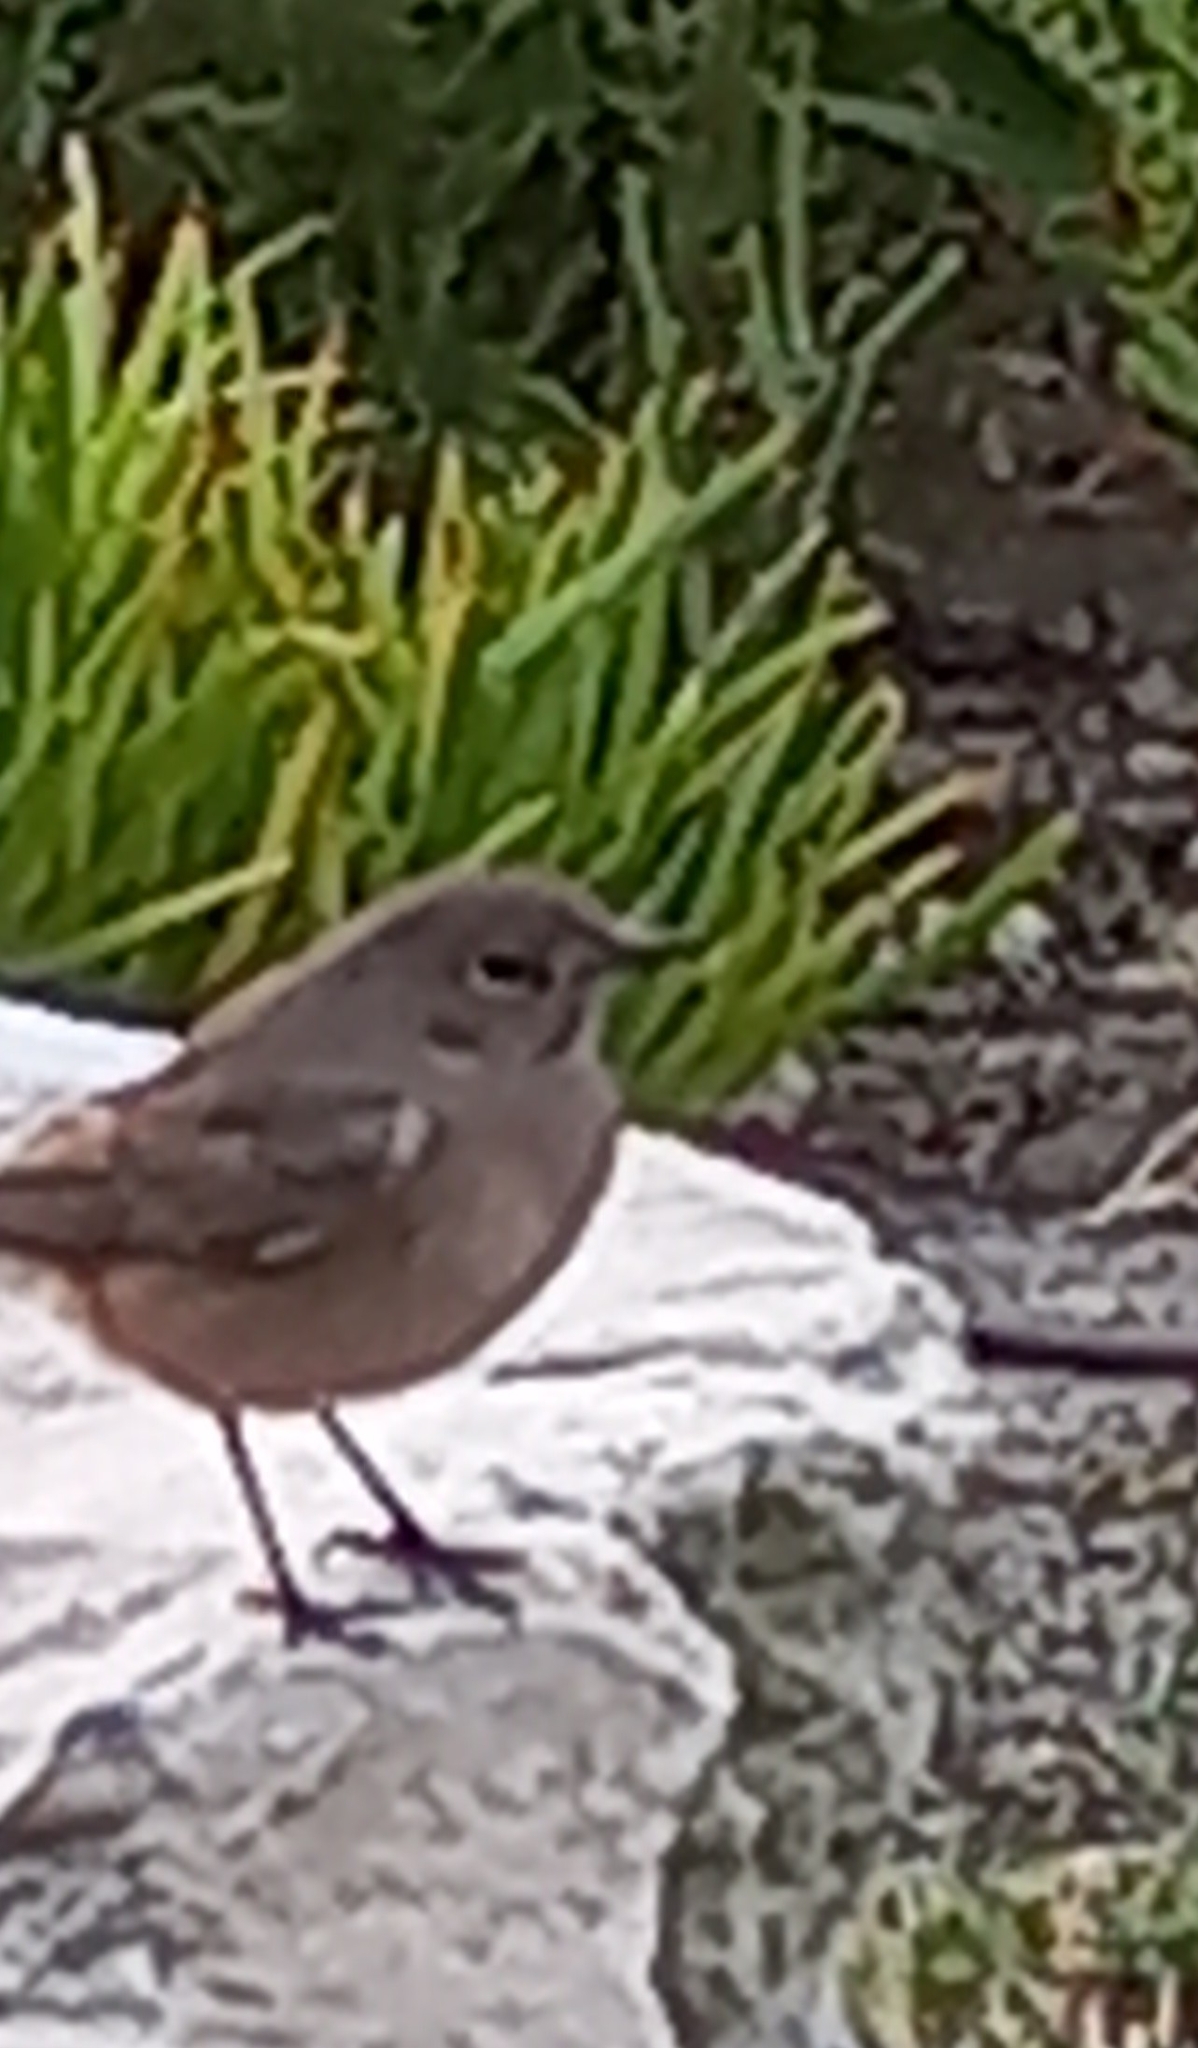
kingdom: Animalia
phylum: Chordata
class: Aves
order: Passeriformes
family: Muscicapidae
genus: Oenanthe
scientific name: Oenanthe familiaris
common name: Familiar chat
